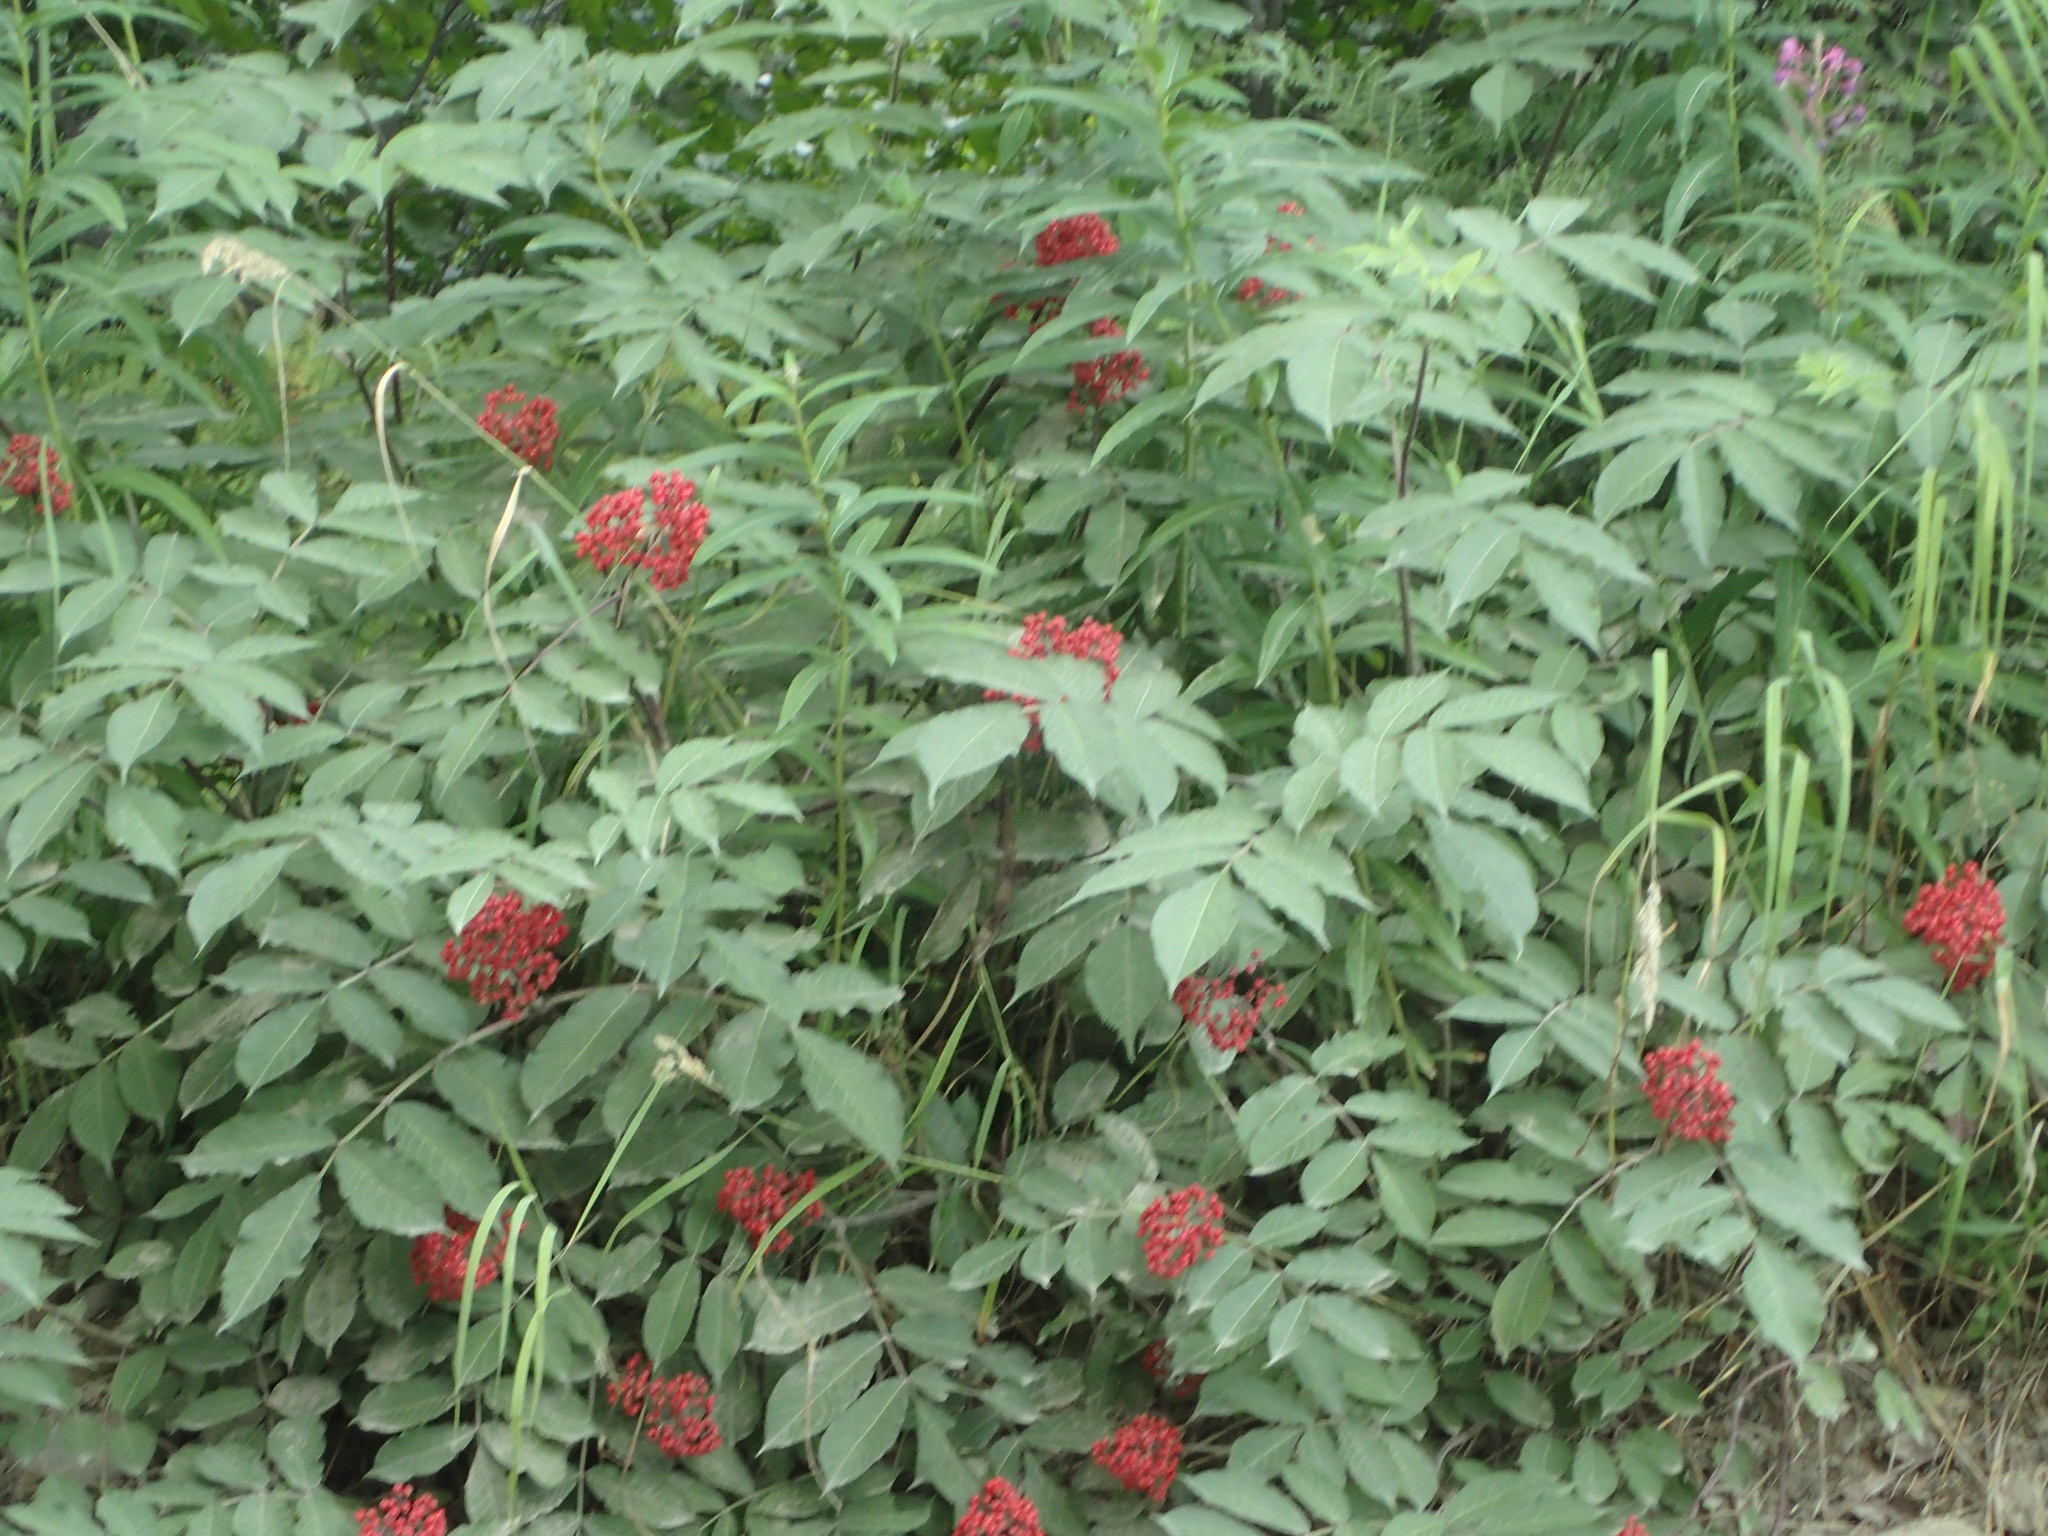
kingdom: Plantae
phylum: Tracheophyta
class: Magnoliopsida
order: Dipsacales
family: Viburnaceae
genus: Sambucus
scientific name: Sambucus racemosa
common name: Red-berried elder
